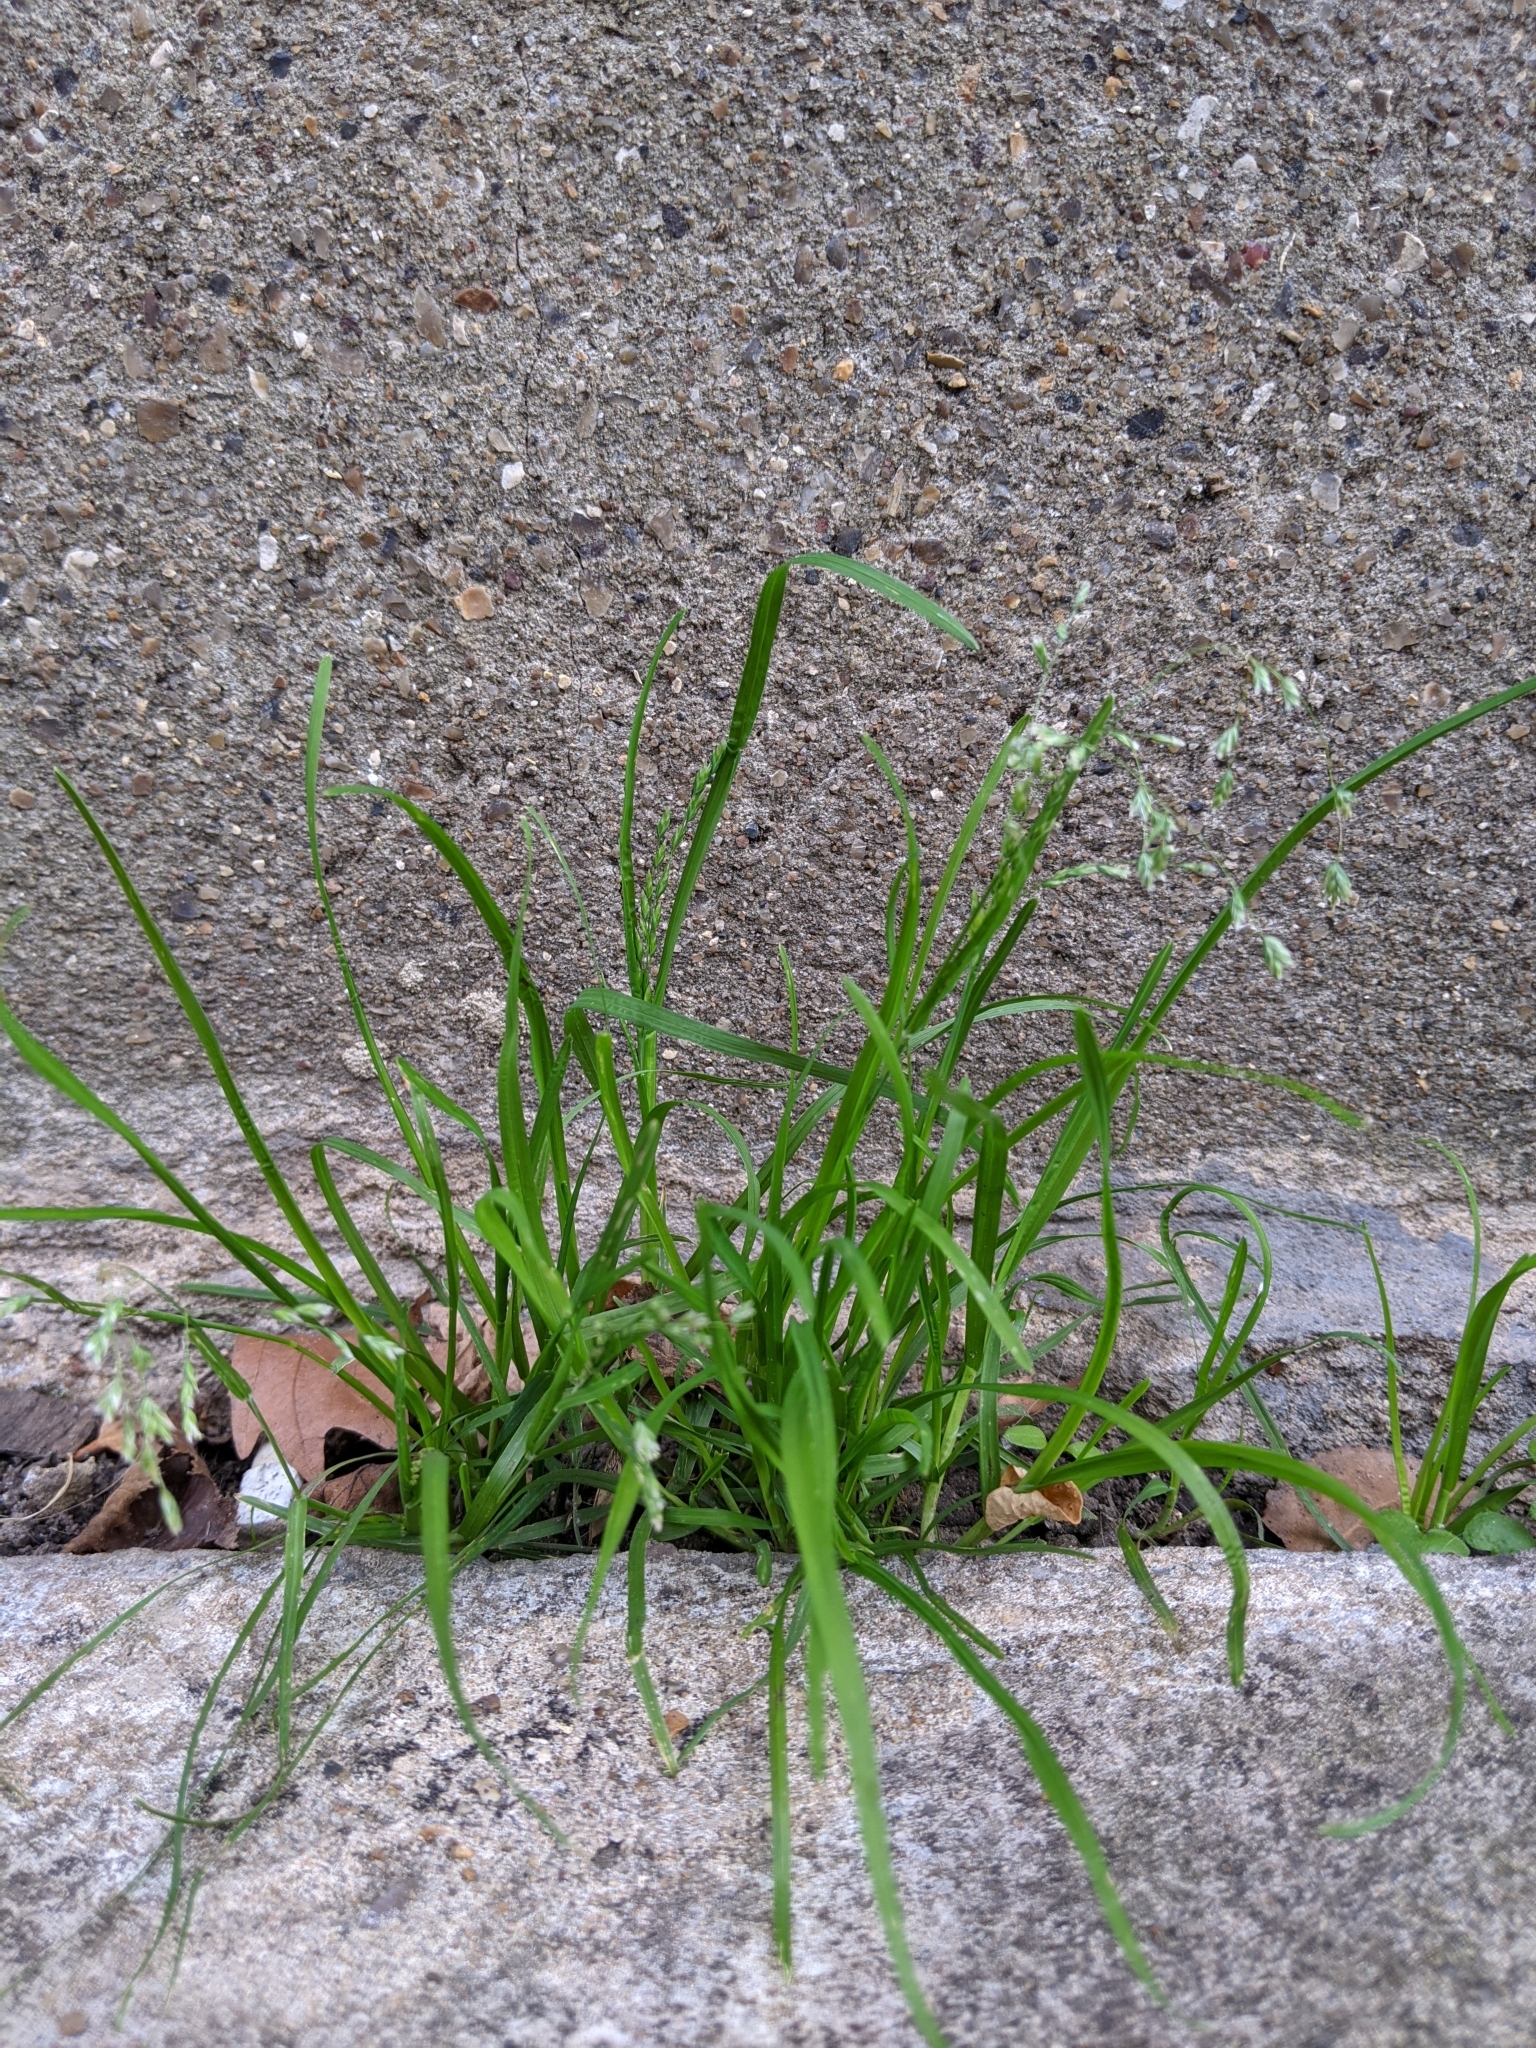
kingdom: Plantae
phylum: Tracheophyta
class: Liliopsida
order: Poales
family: Poaceae
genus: Poa
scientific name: Poa annua
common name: Annual bluegrass
